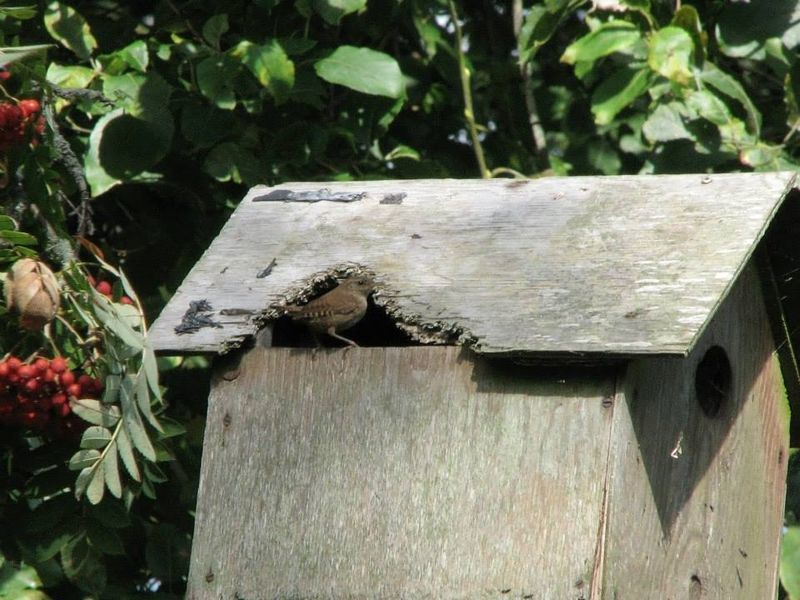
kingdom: Animalia
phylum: Chordata
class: Aves
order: Passeriformes
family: Troglodytidae
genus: Troglodytes
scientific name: Troglodytes troglodytes
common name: Eurasian wren
